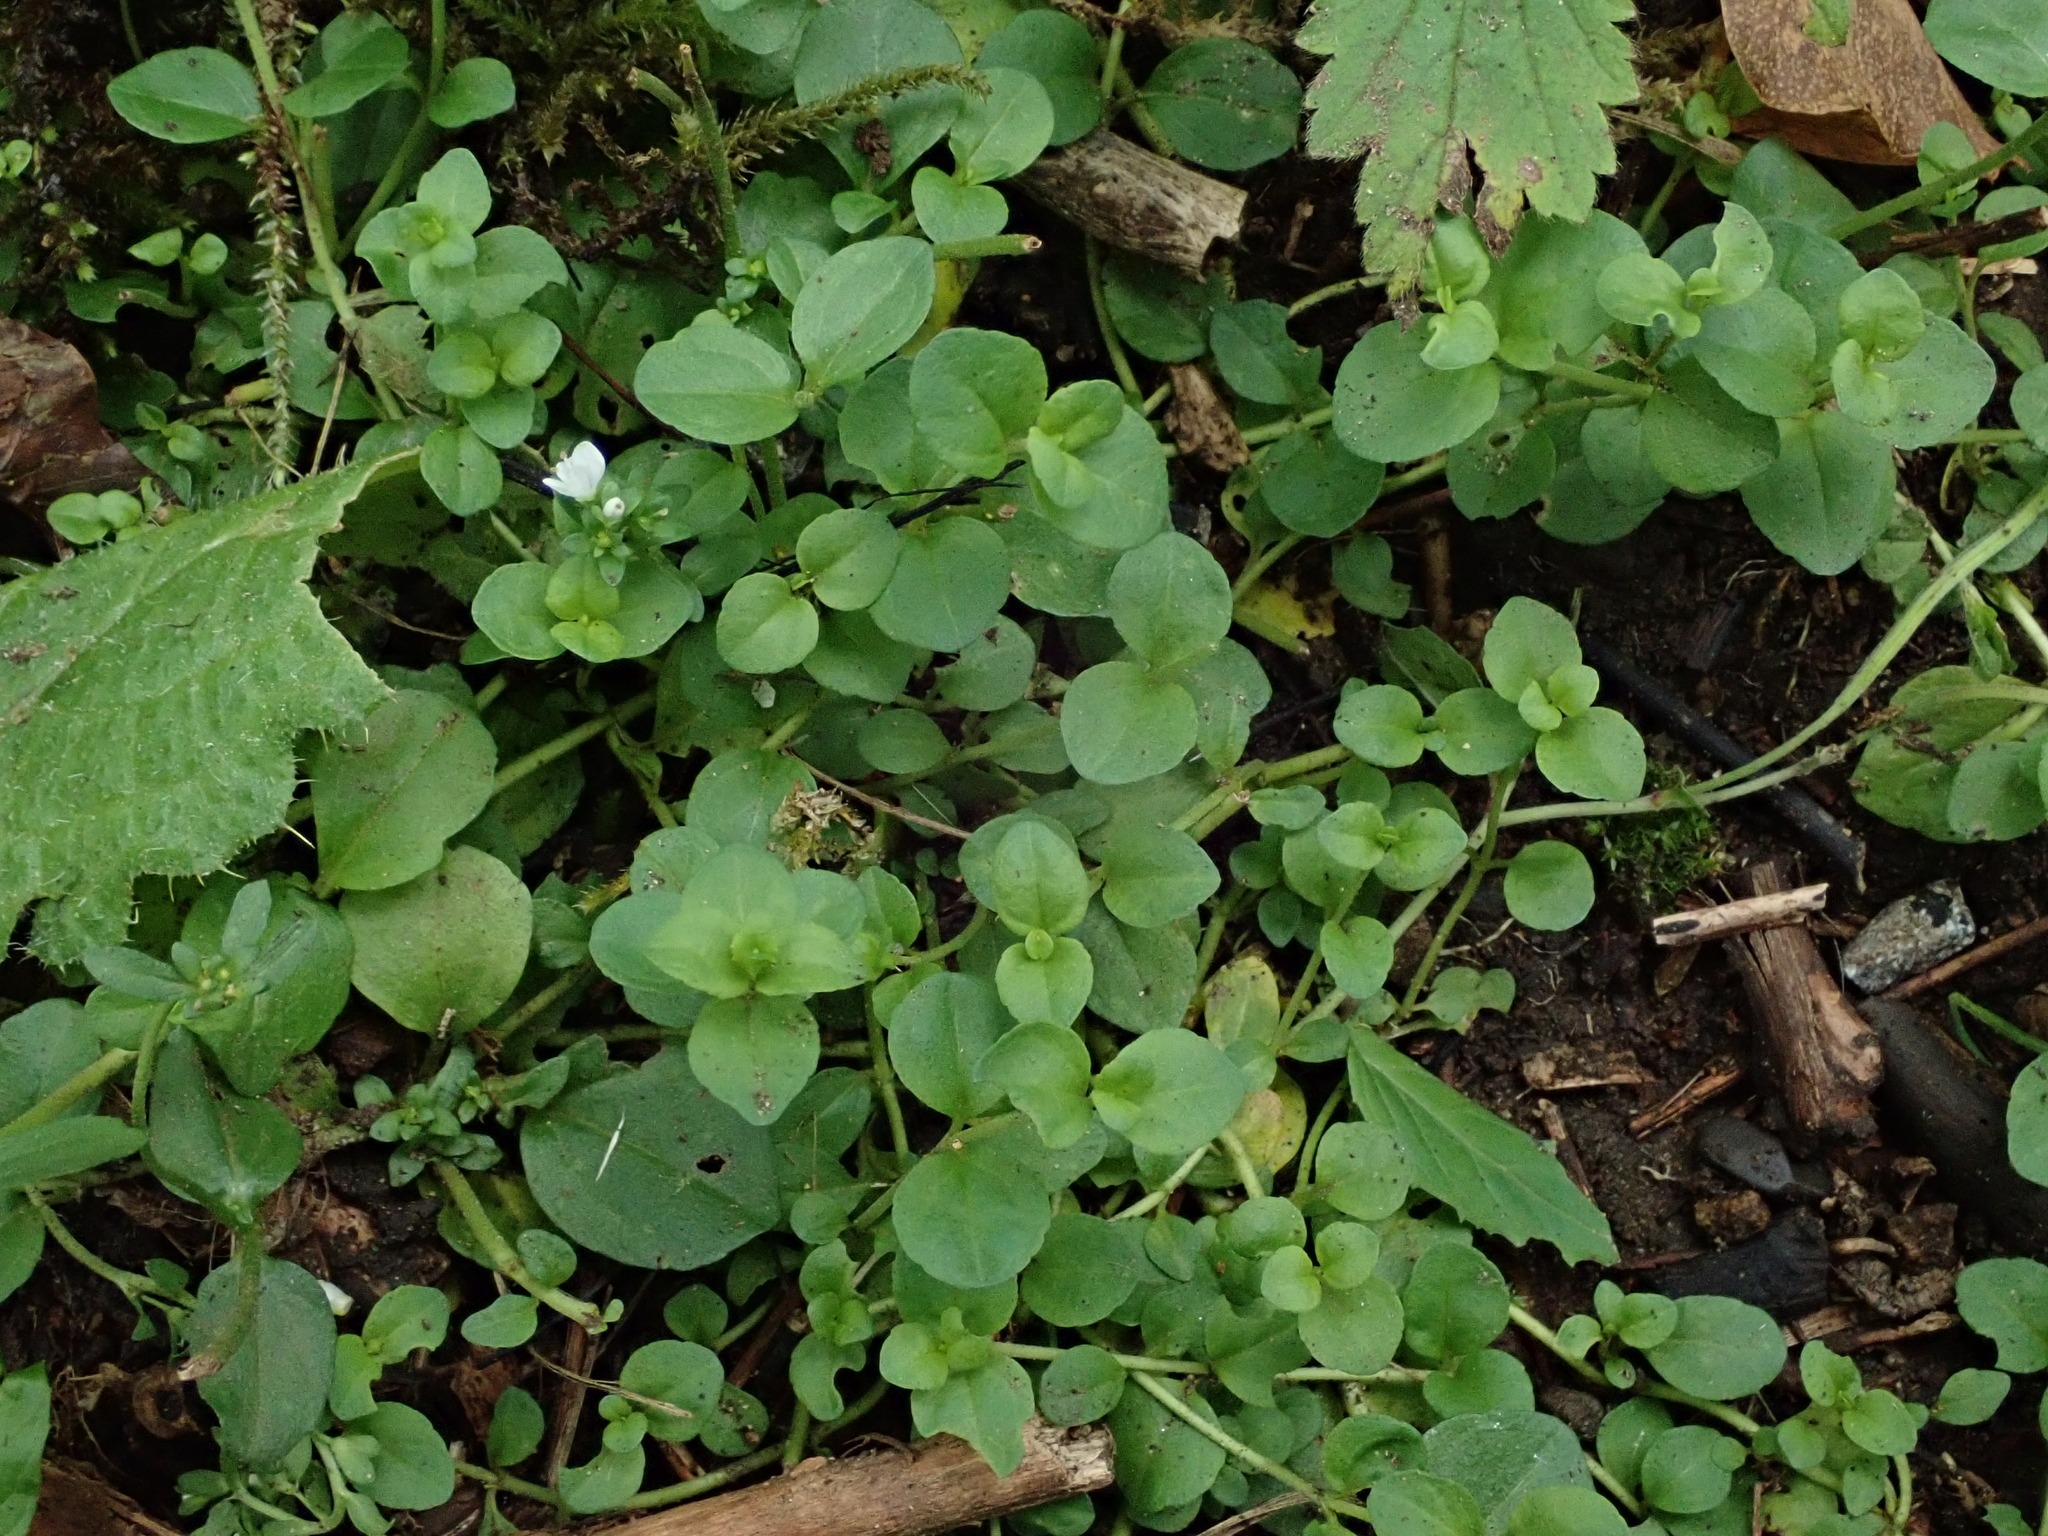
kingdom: Plantae
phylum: Tracheophyta
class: Magnoliopsida
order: Lamiales
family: Plantaginaceae
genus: Veronica
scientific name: Veronica serpyllifolia
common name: Thyme-leaved speedwell
